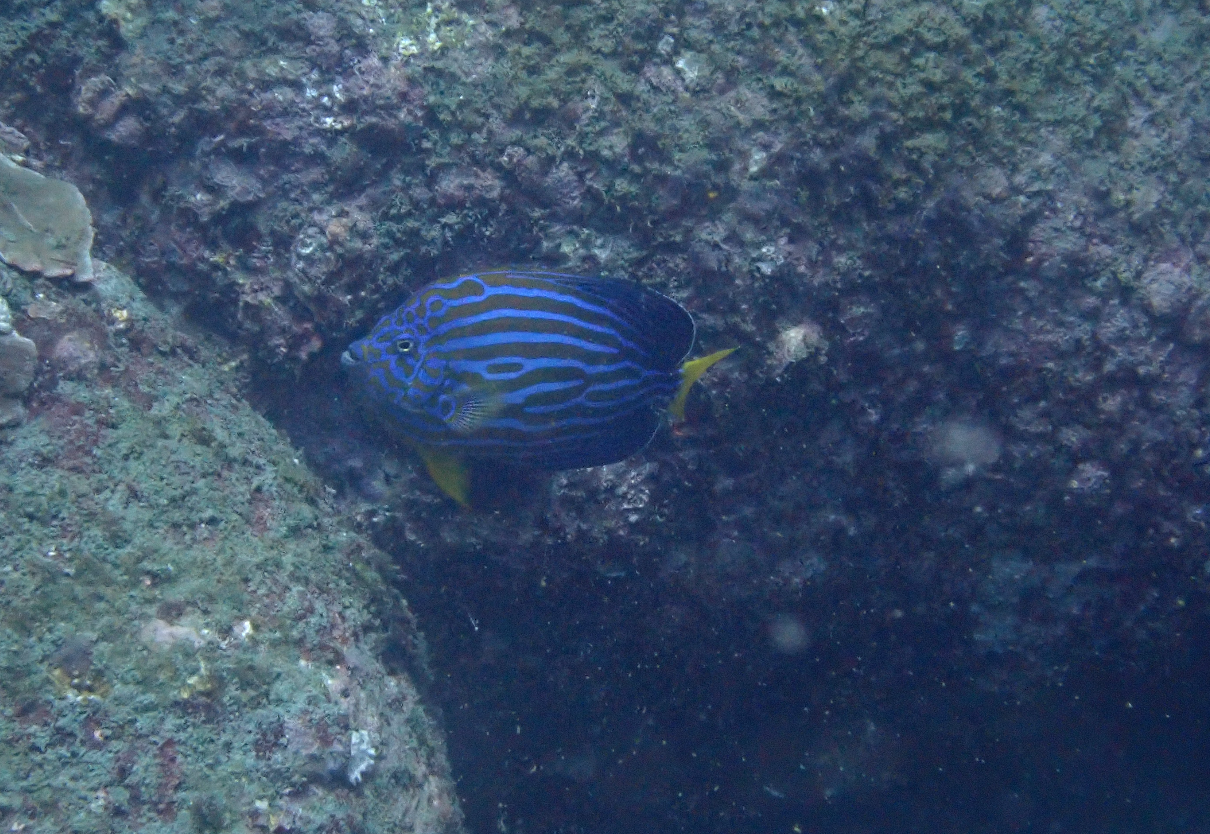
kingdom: Animalia
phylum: Chordata
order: Perciformes
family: Pomacanthidae
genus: Chaetodontoplus
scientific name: Chaetodontoplus septentrionalis
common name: Bluestriped angelfish
